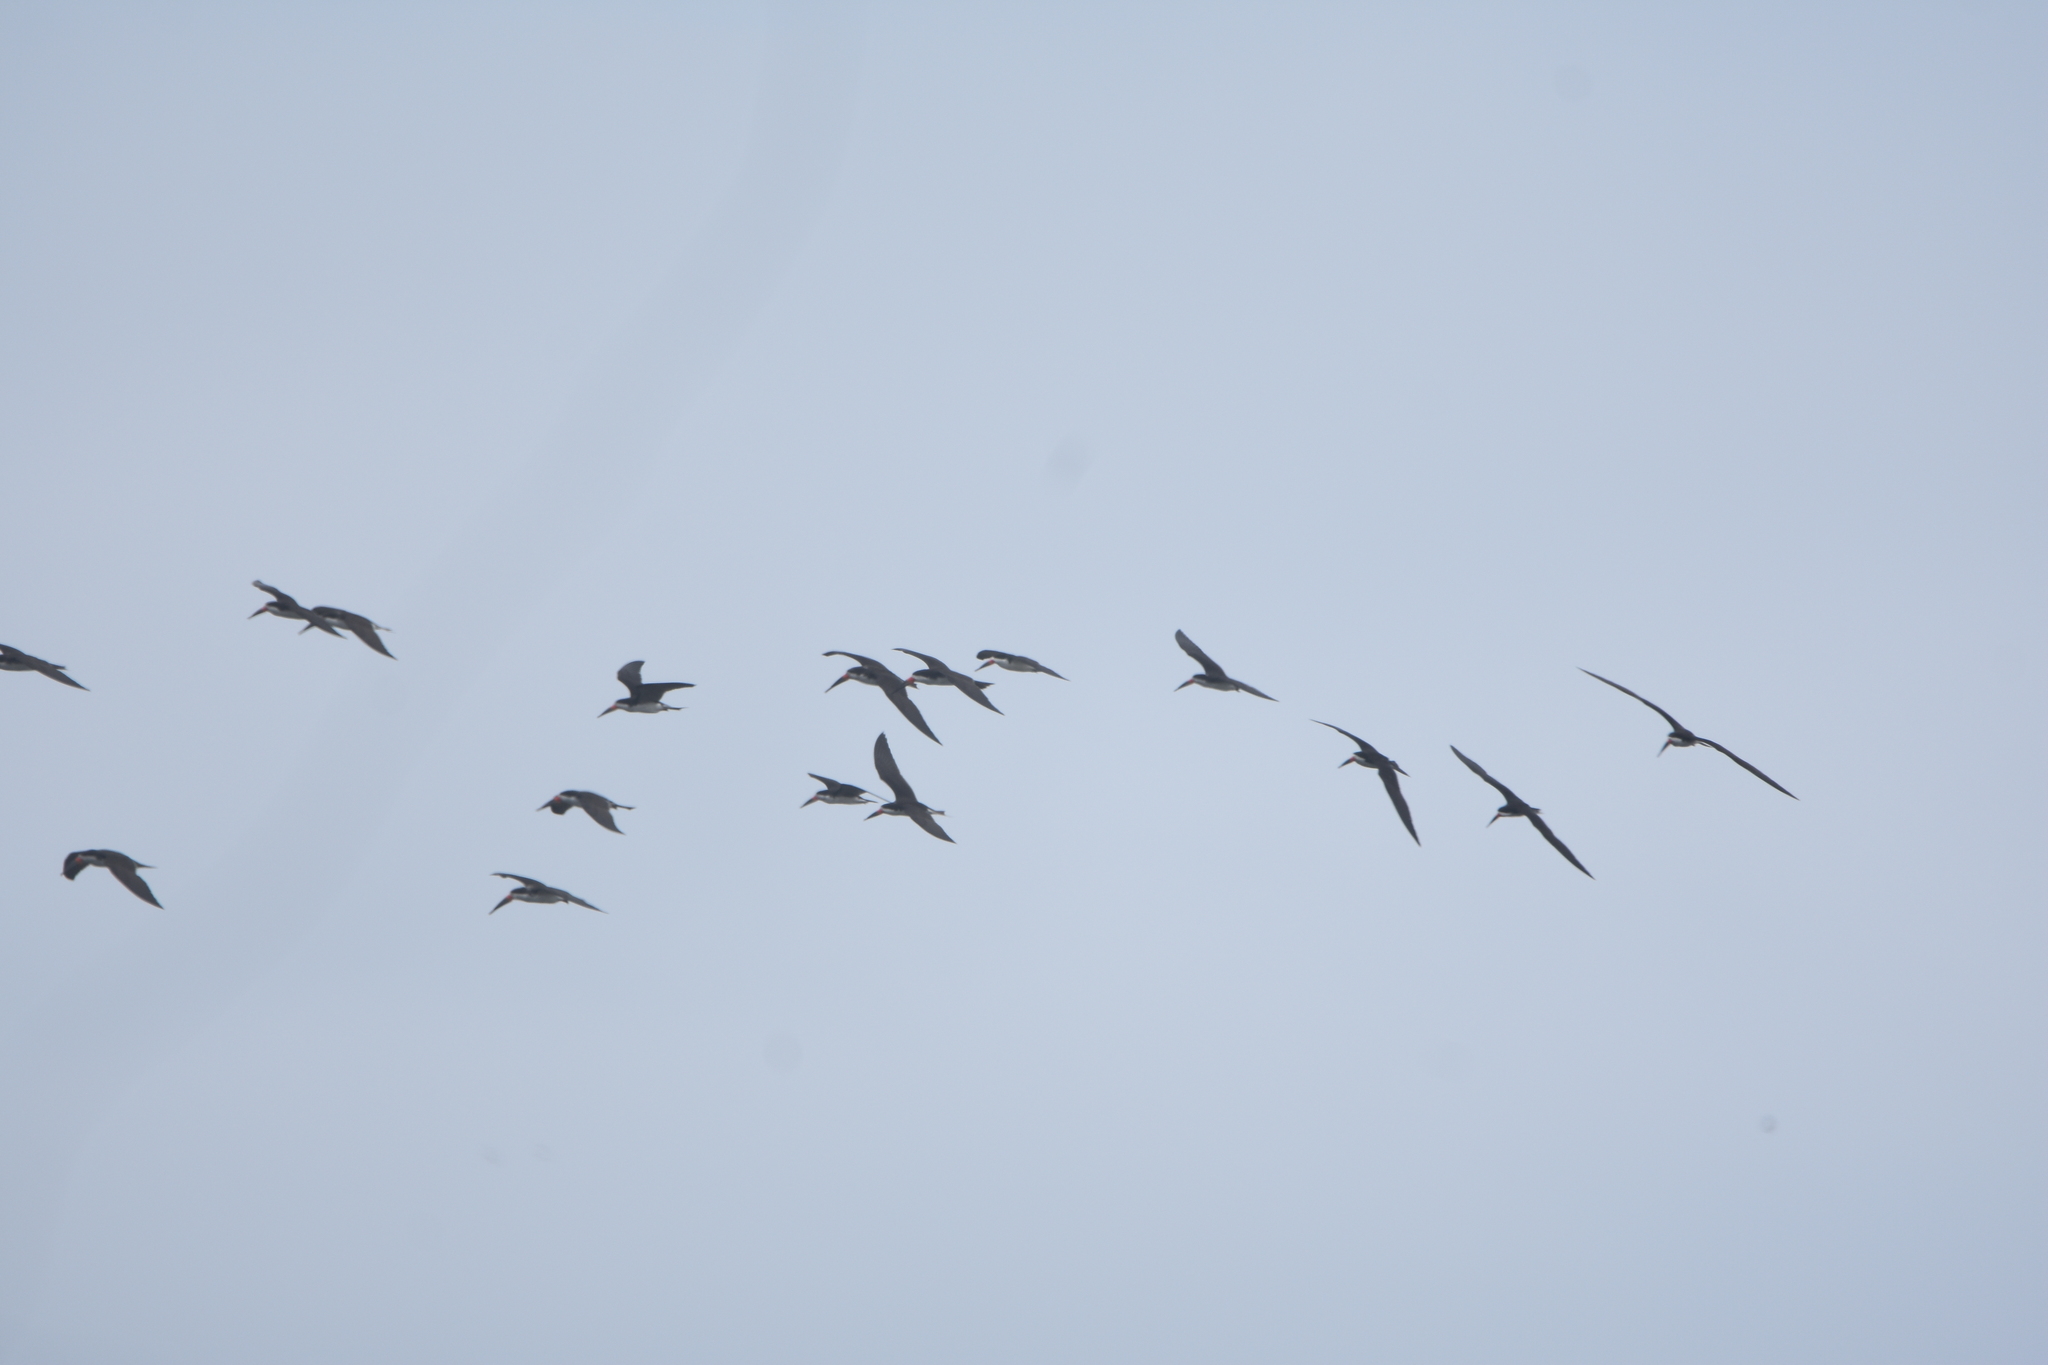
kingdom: Animalia
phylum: Chordata
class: Aves
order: Charadriiformes
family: Laridae
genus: Rynchops
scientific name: Rynchops niger
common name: Black skimmer
